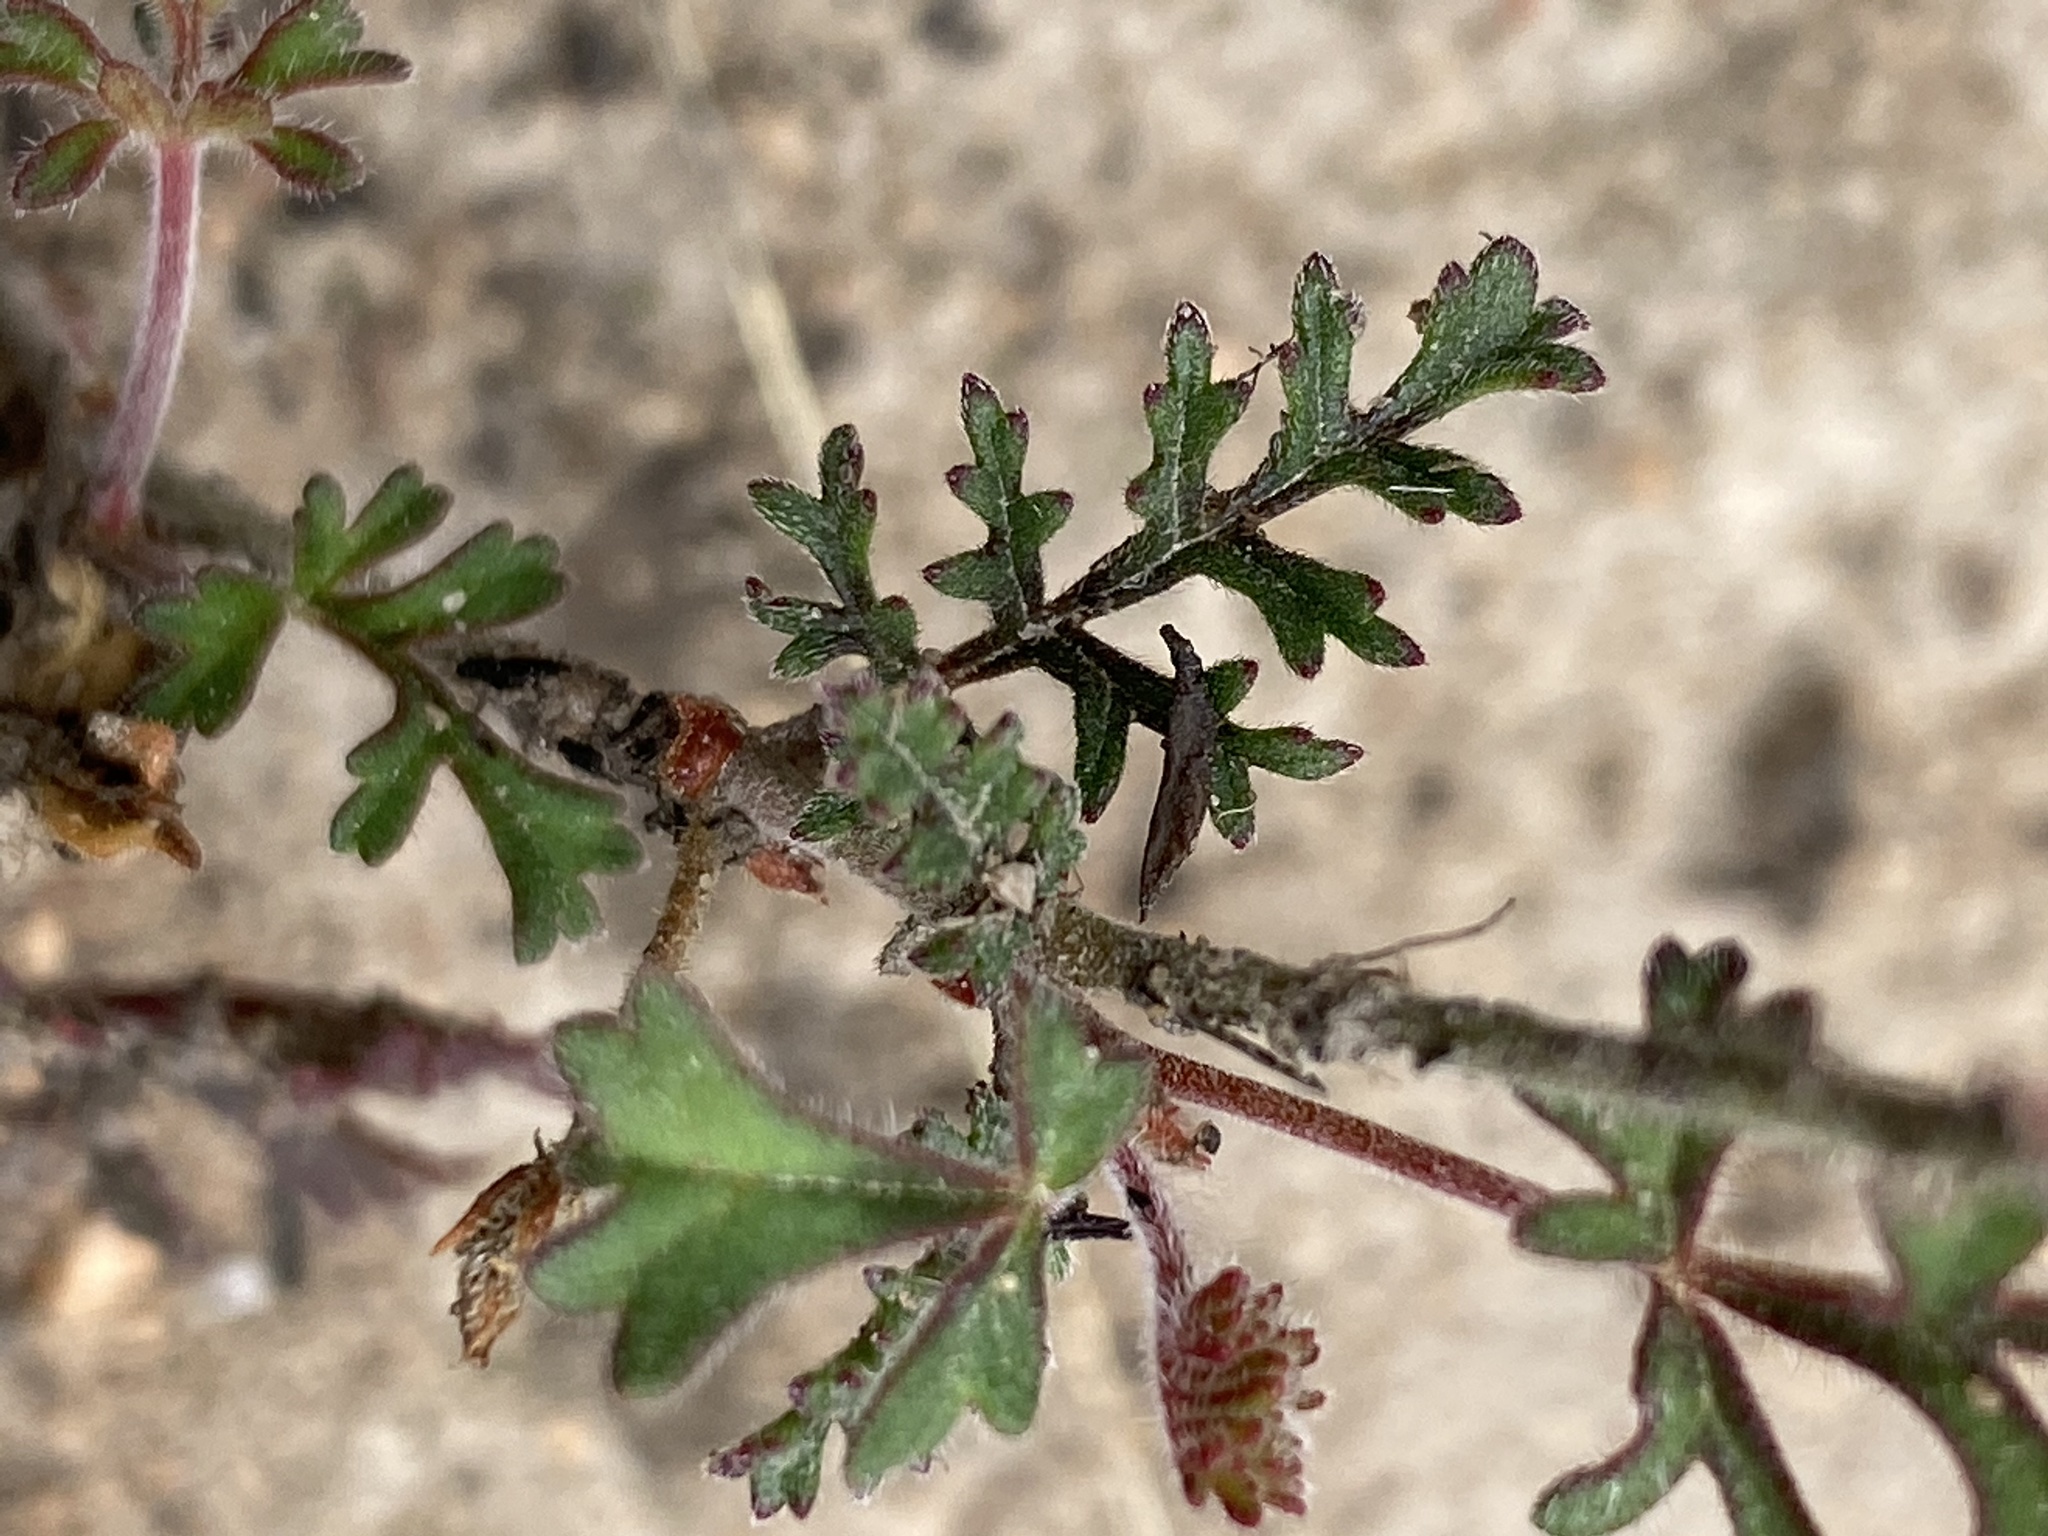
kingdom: Plantae
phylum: Tracheophyta
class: Magnoliopsida
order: Geraniales
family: Geraniaceae
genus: Pelargonium
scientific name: Pelargonium caucalifolium
